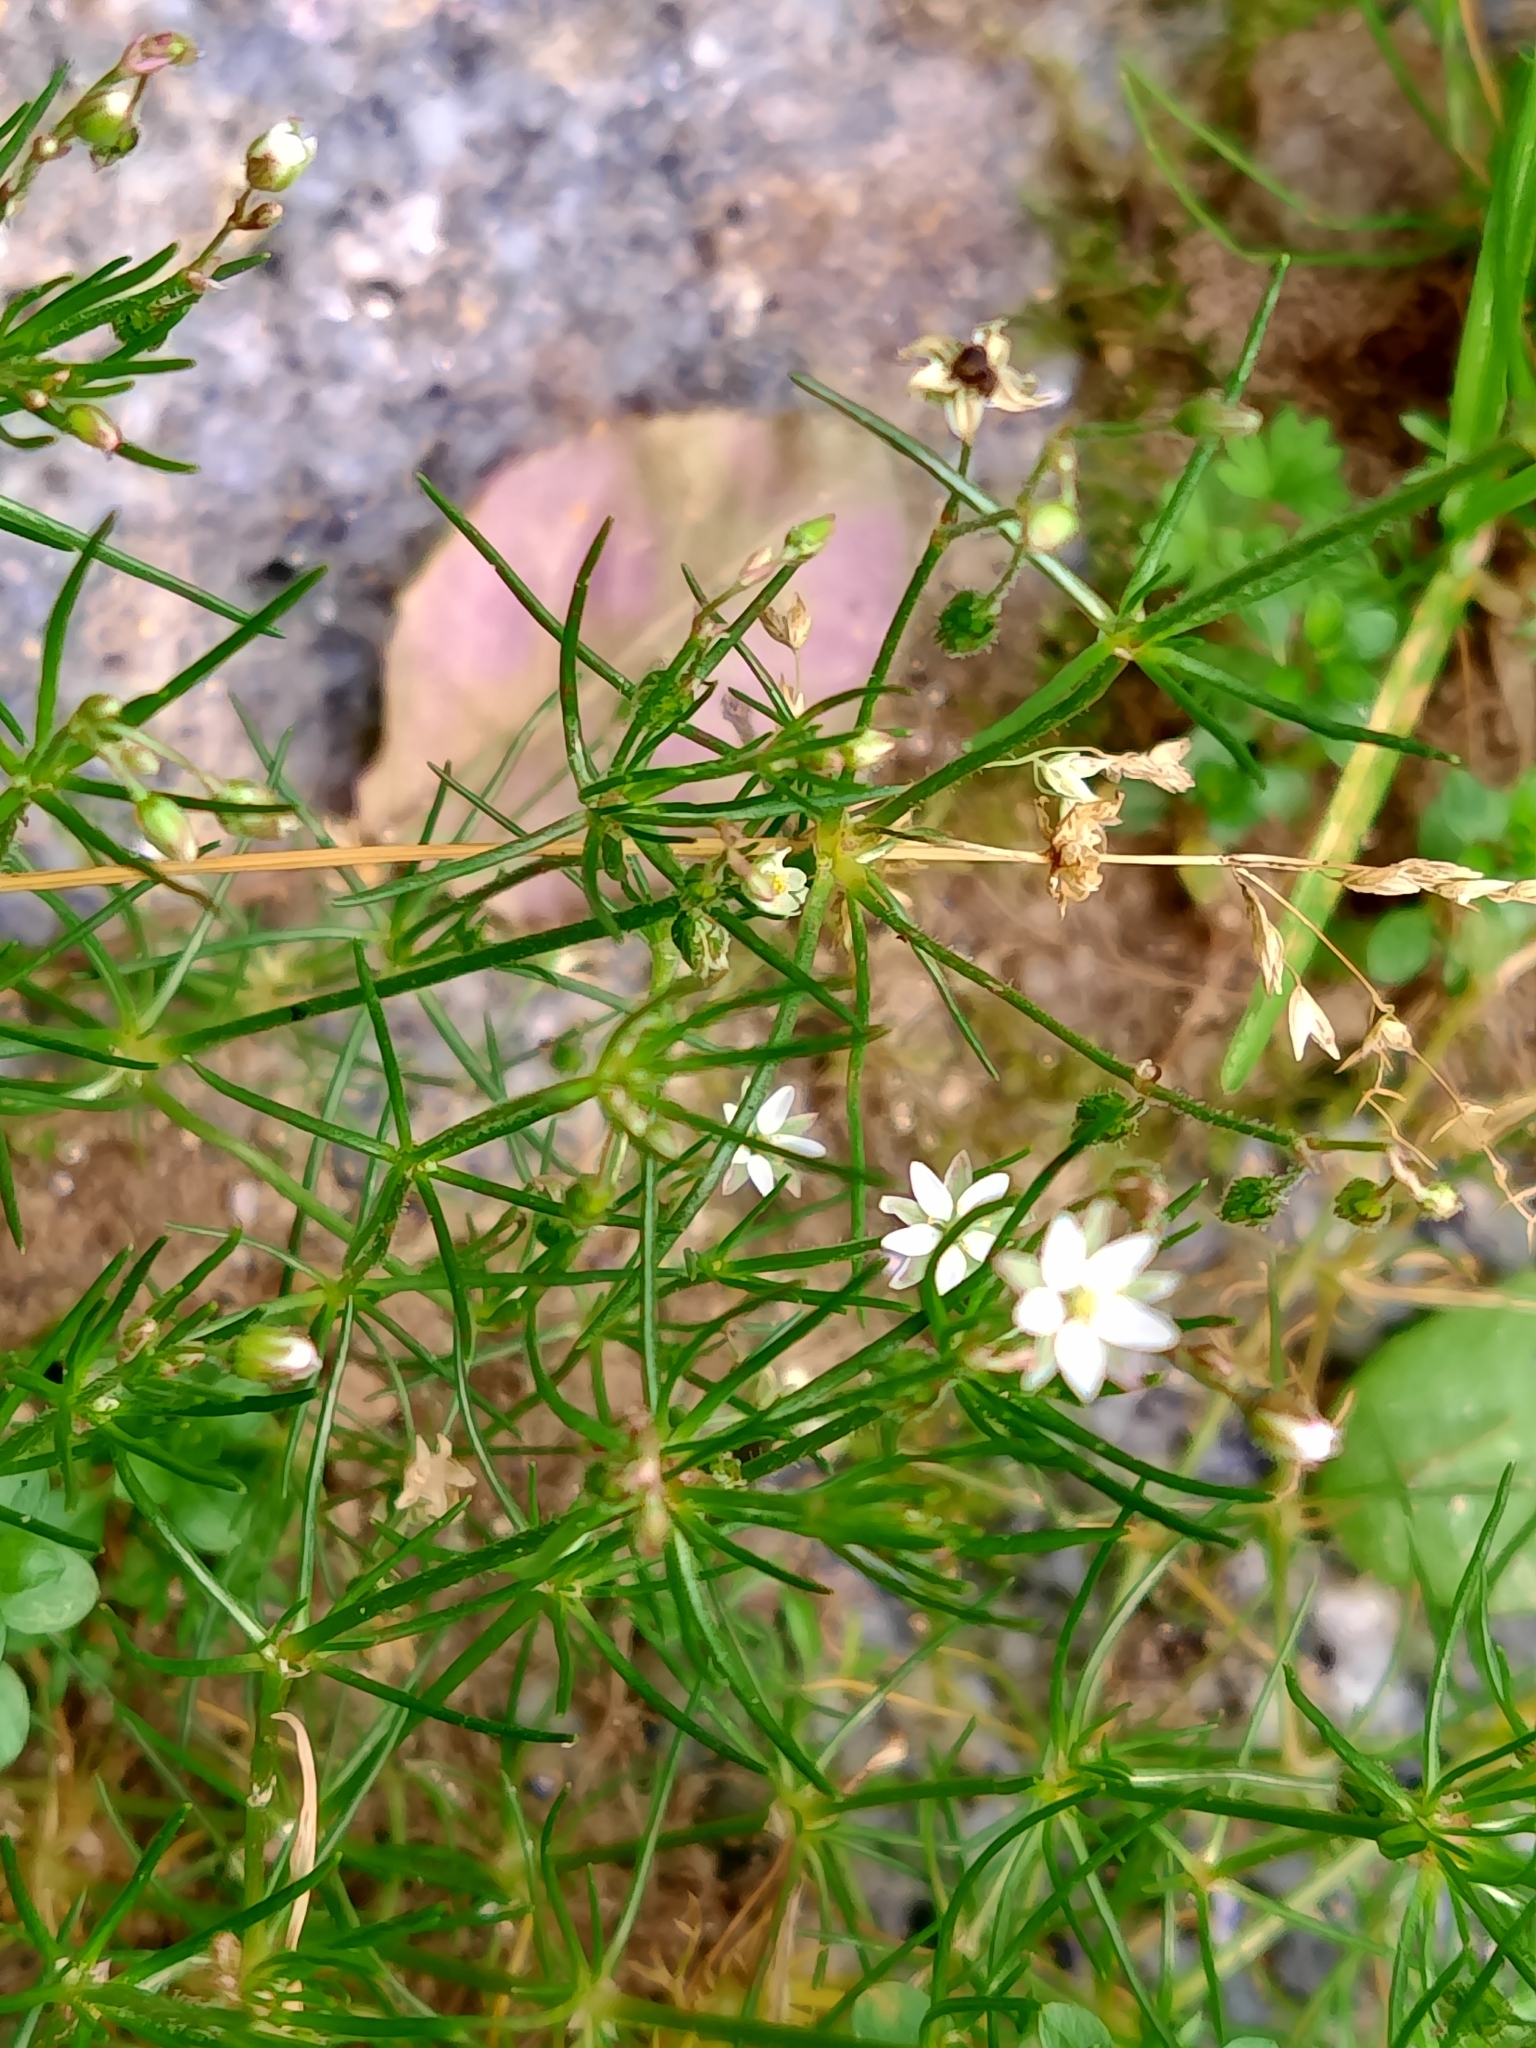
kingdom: Plantae
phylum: Tracheophyta
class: Magnoliopsida
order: Caryophyllales
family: Caryophyllaceae
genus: Spergula
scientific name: Spergula arvensis
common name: Corn spurrey
